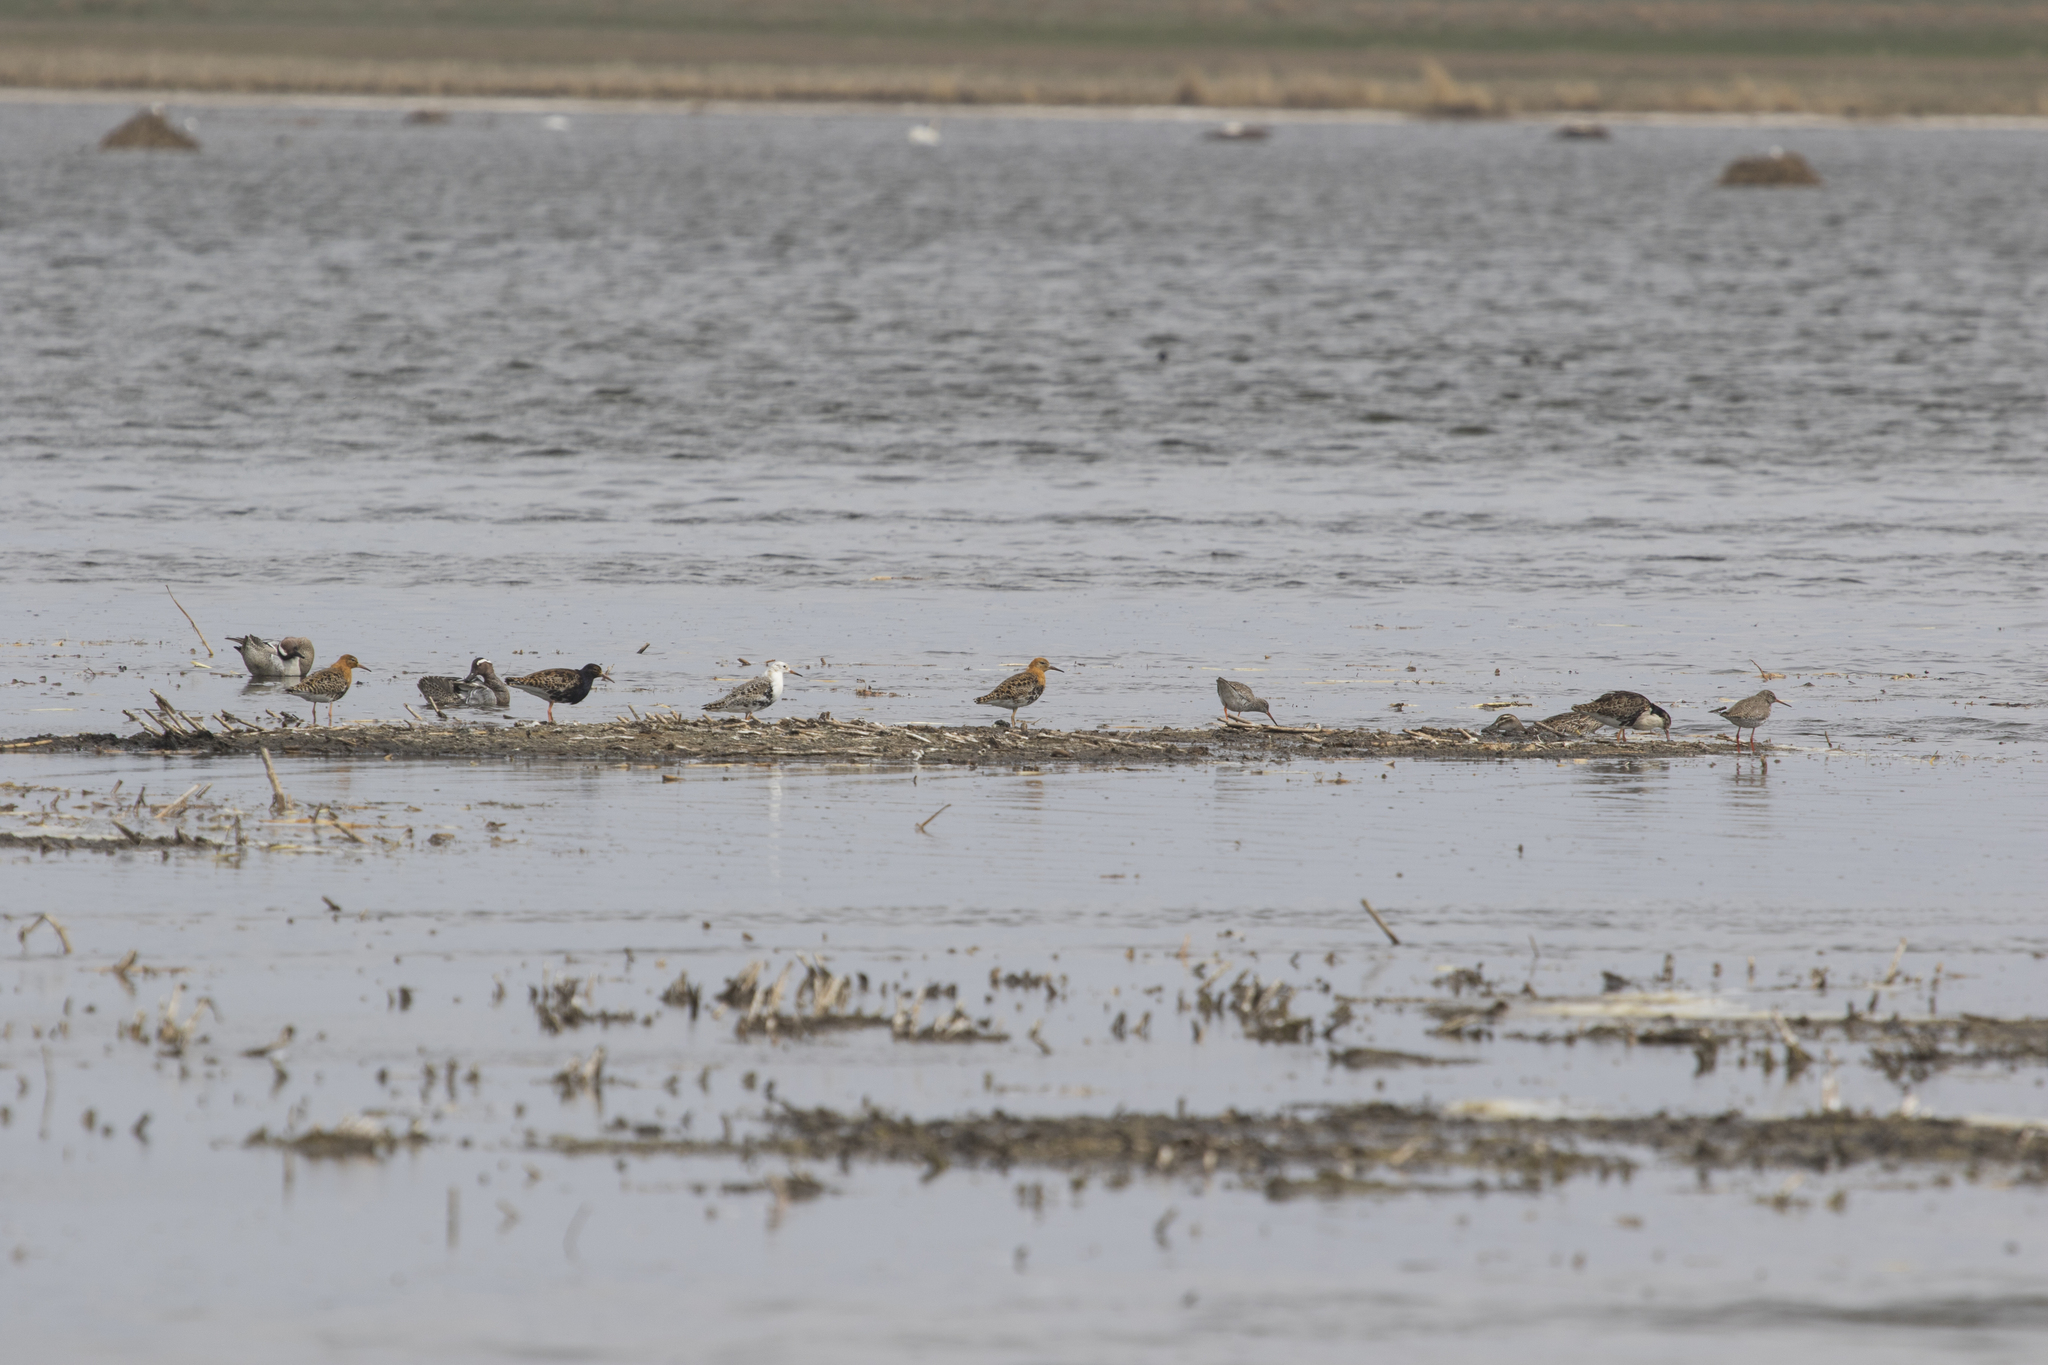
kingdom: Animalia
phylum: Chordata
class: Aves
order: Charadriiformes
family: Scolopacidae
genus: Calidris
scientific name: Calidris pugnax
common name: Ruff
